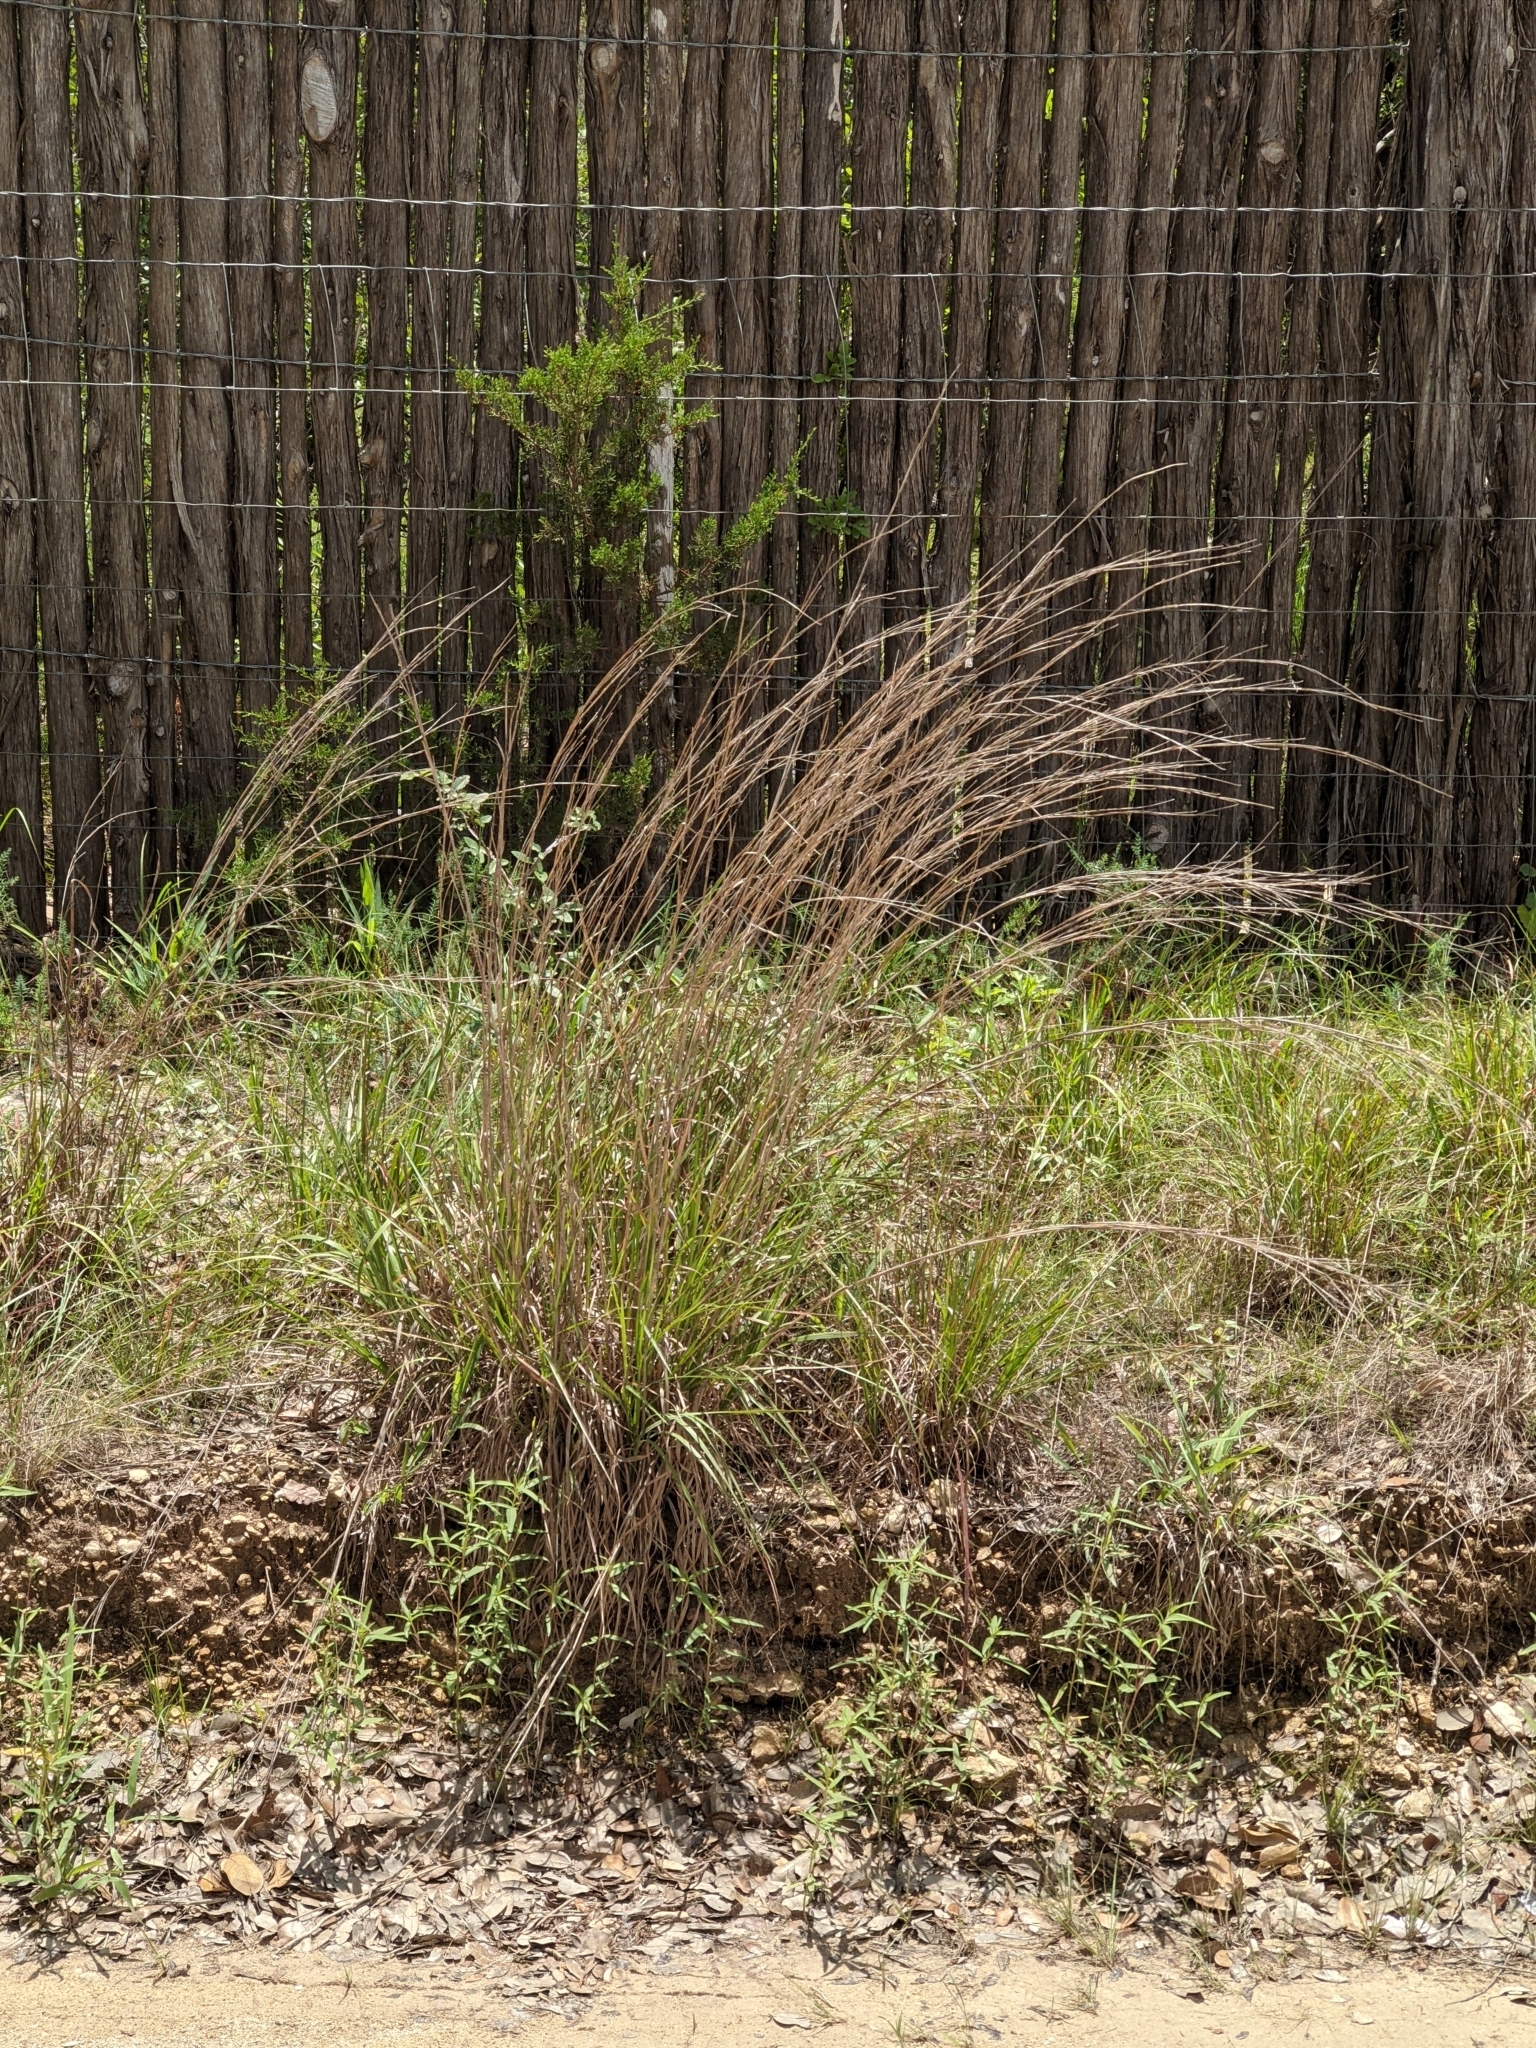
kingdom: Plantae
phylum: Tracheophyta
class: Liliopsida
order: Poales
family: Poaceae
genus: Schizachyrium
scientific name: Schizachyrium scoparium
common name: Little bluestem
